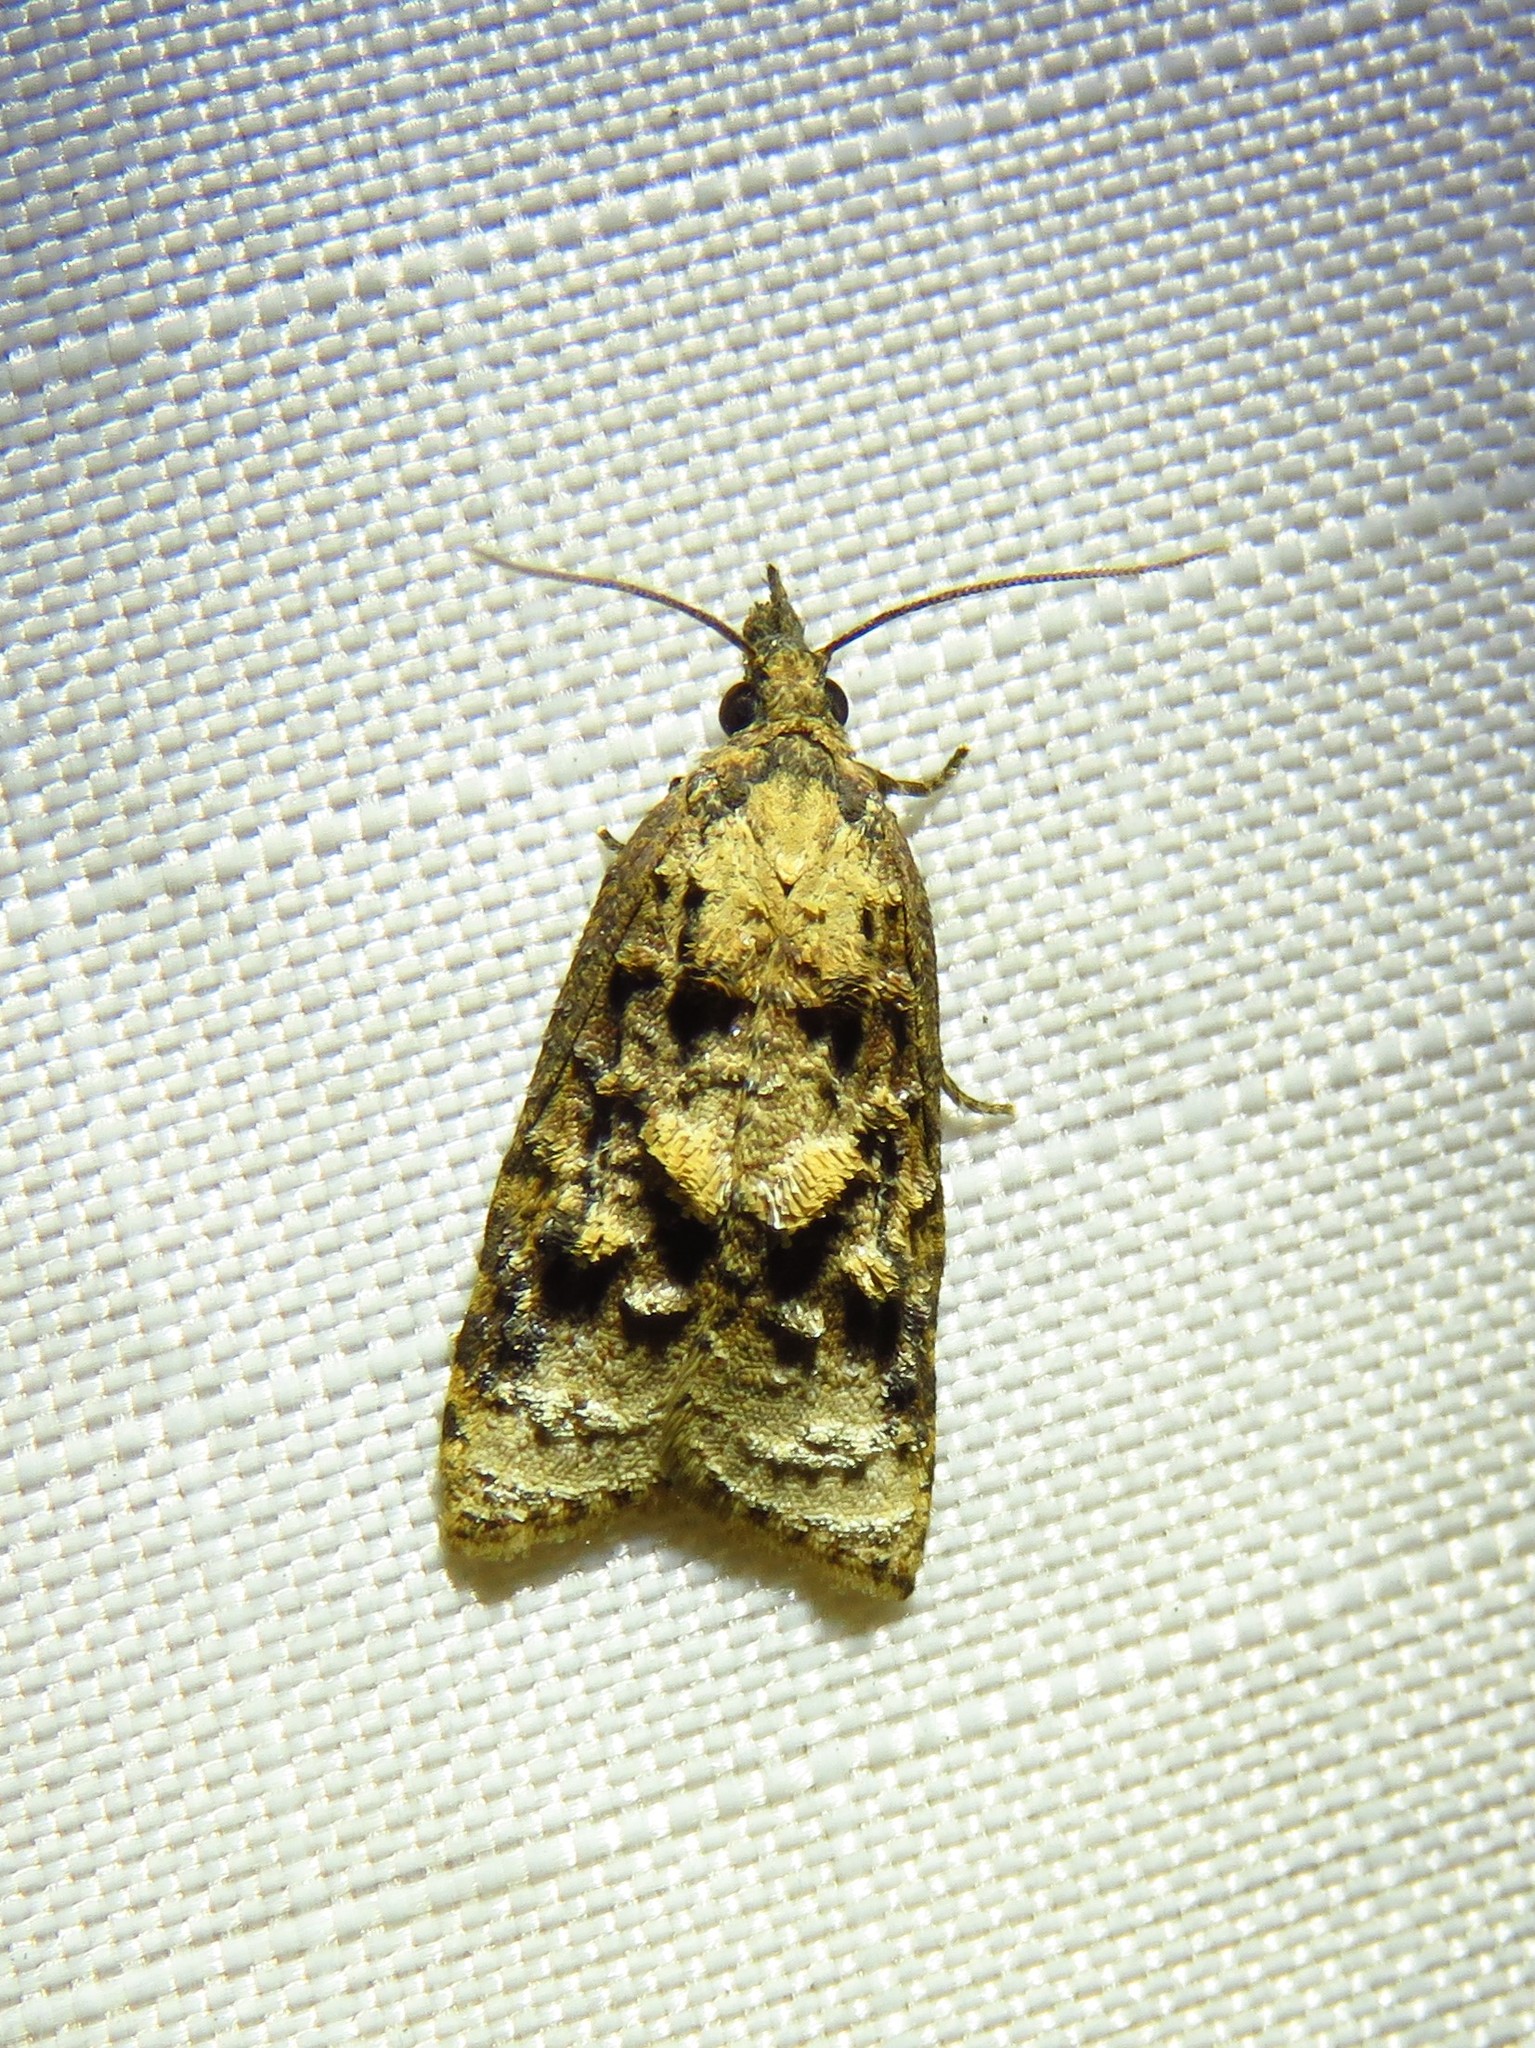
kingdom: Animalia
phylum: Arthropoda
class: Insecta
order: Lepidoptera
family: Tortricidae
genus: Platynota
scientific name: Platynota rostrana
